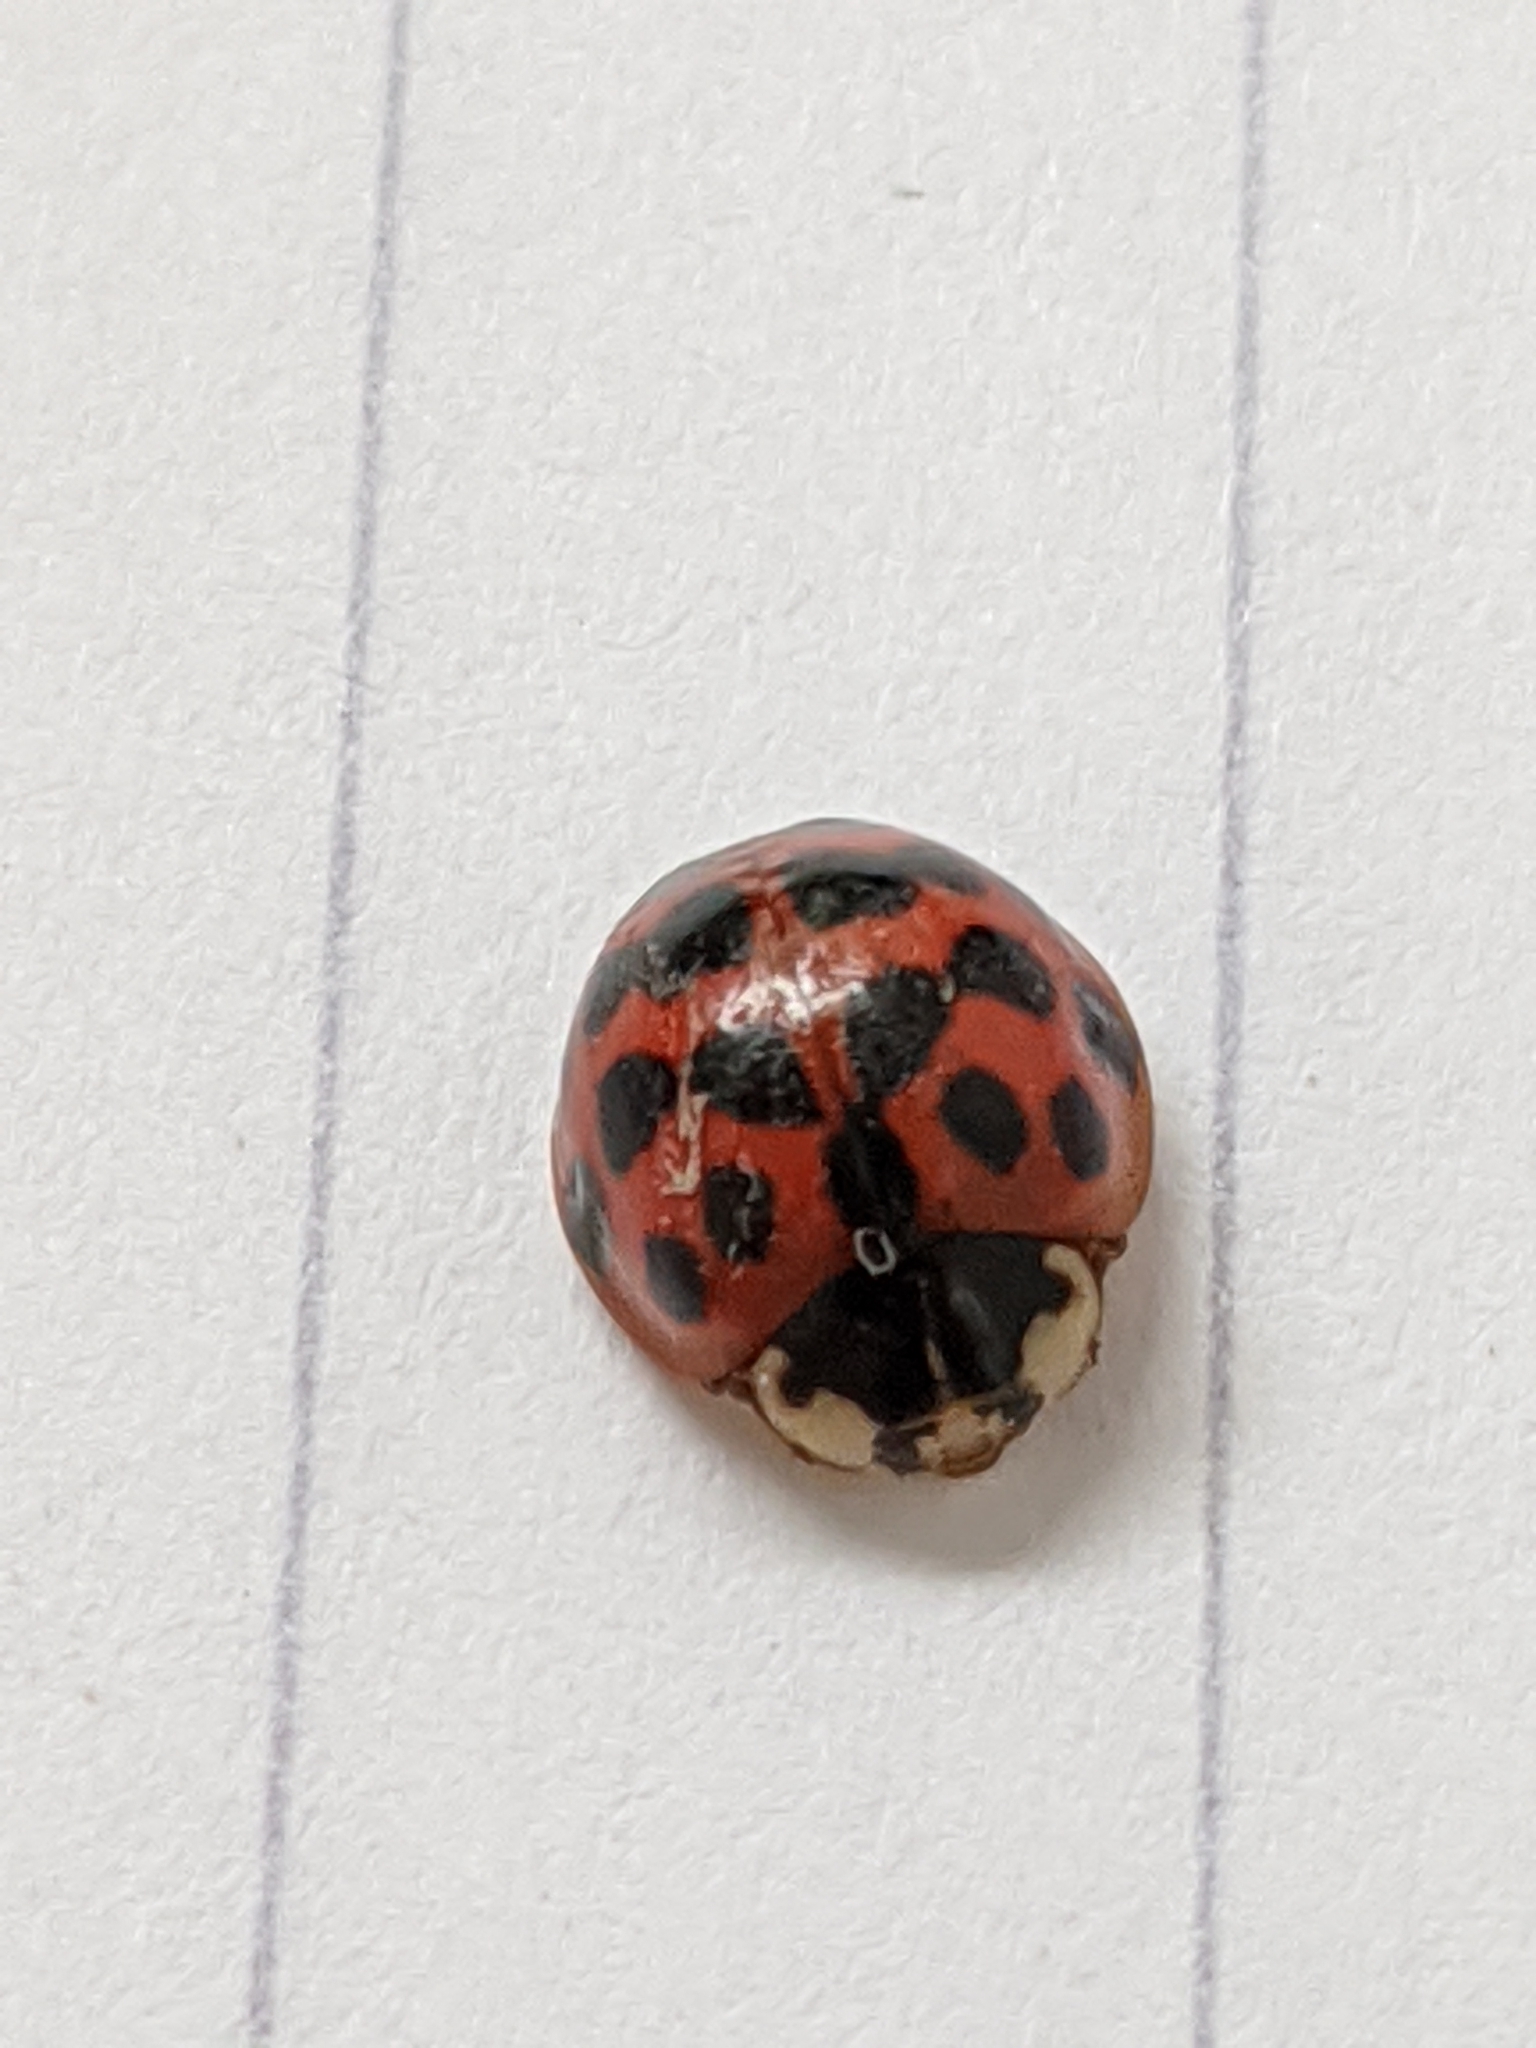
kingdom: Animalia
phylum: Arthropoda
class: Insecta
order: Coleoptera
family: Coccinellidae
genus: Harmonia
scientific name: Harmonia axyridis
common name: Harlequin ladybird
